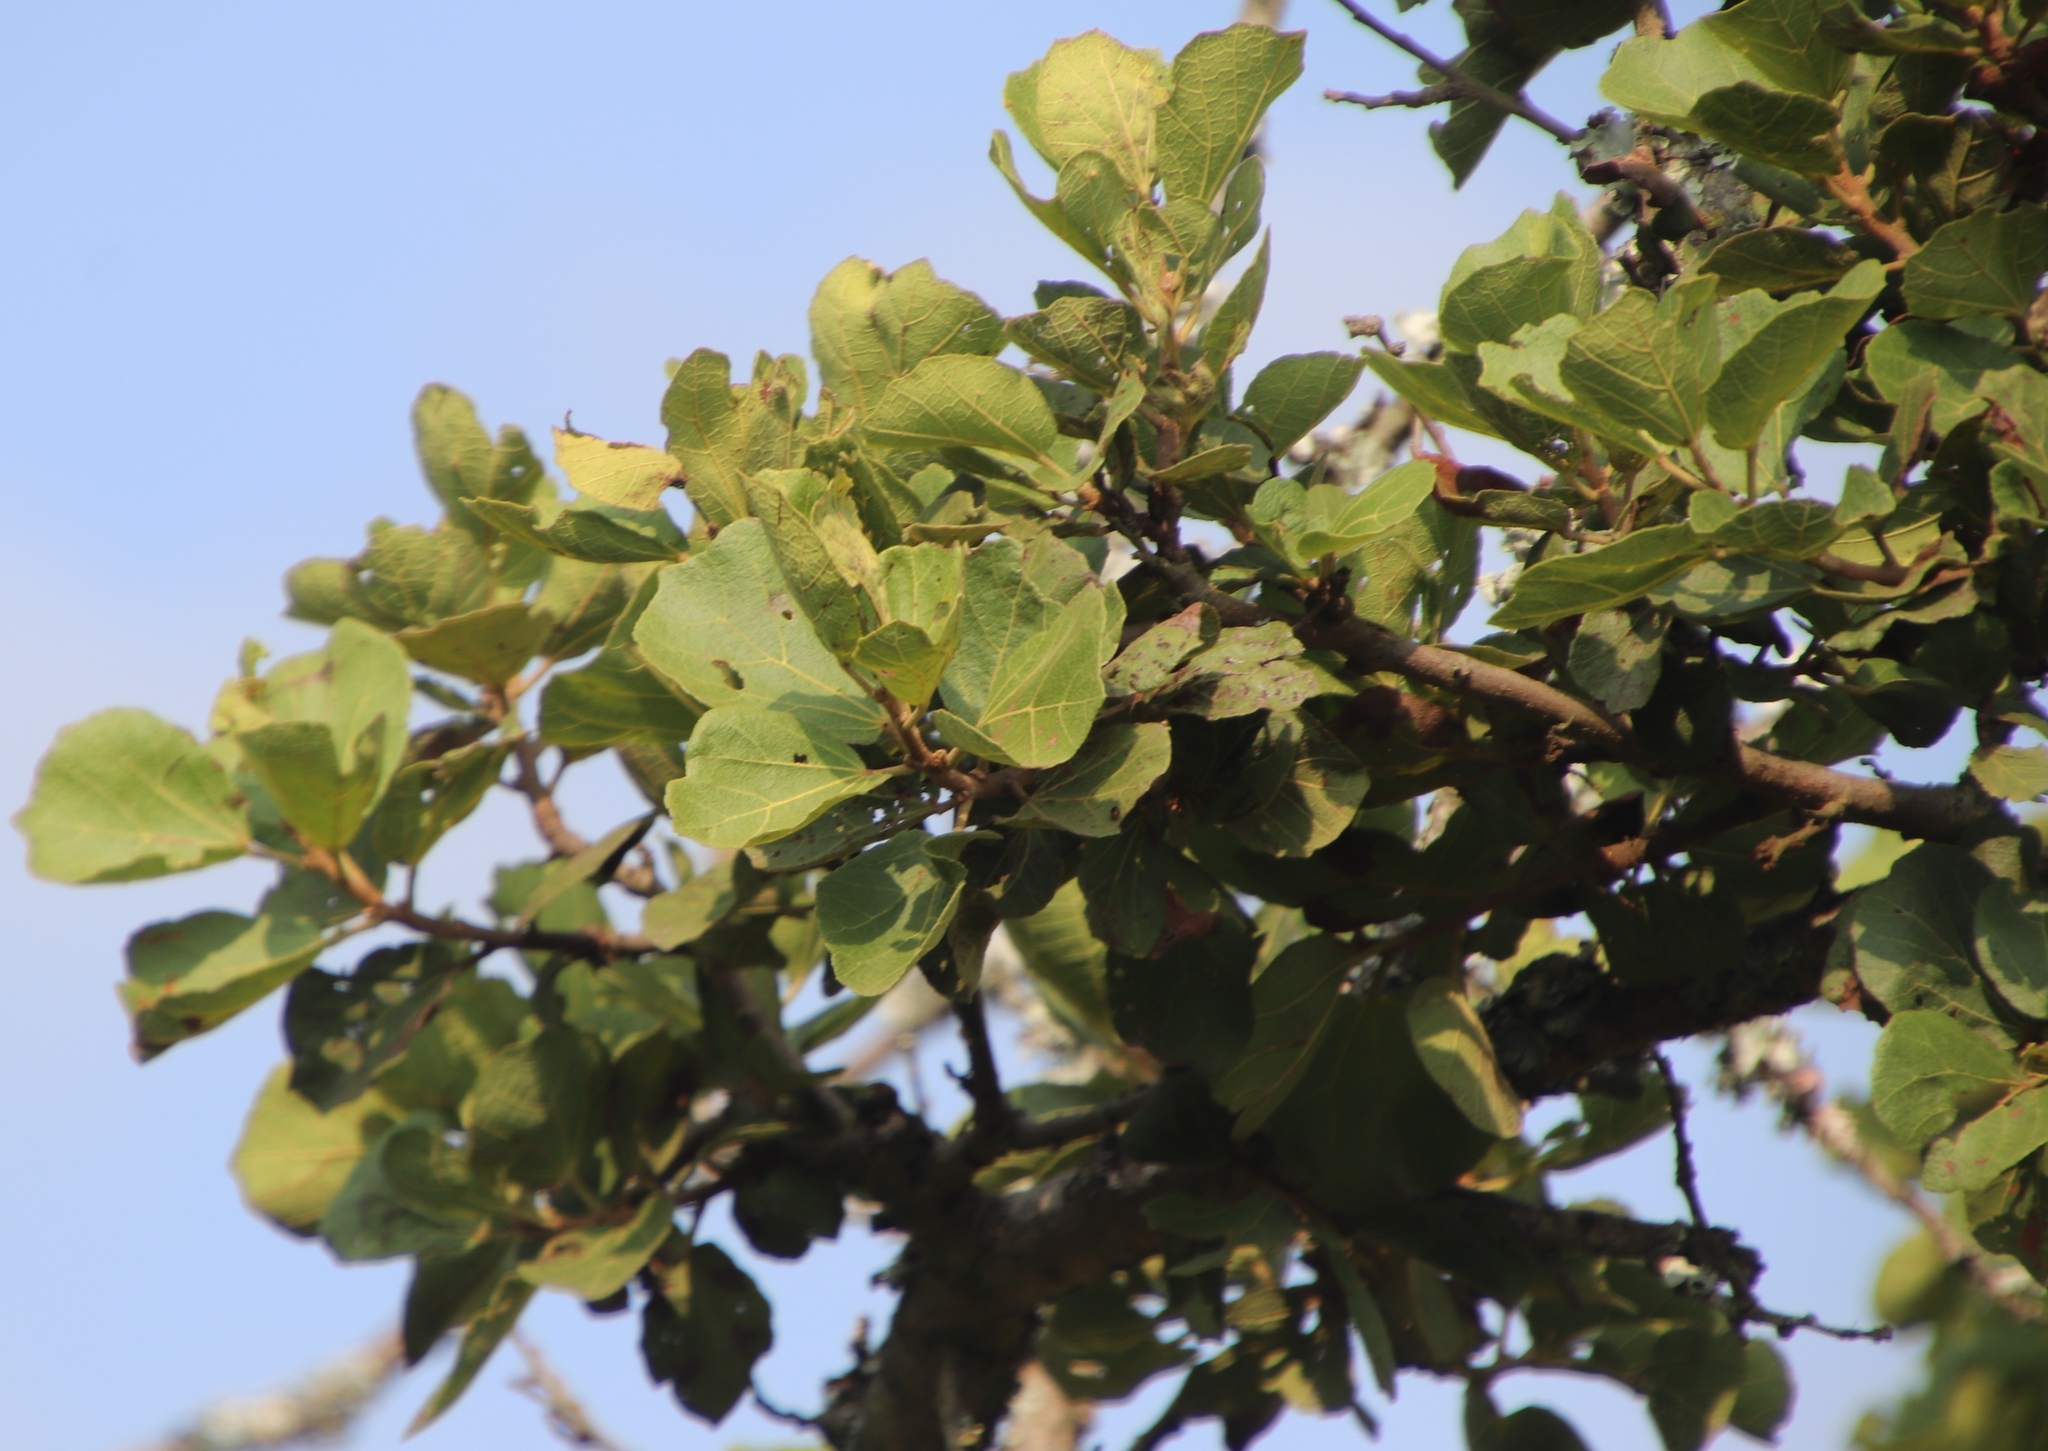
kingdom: Plantae
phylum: Tracheophyta
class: Magnoliopsida
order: Malvales
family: Malvaceae
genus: Dombeya
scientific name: Dombeya rotundifolia
